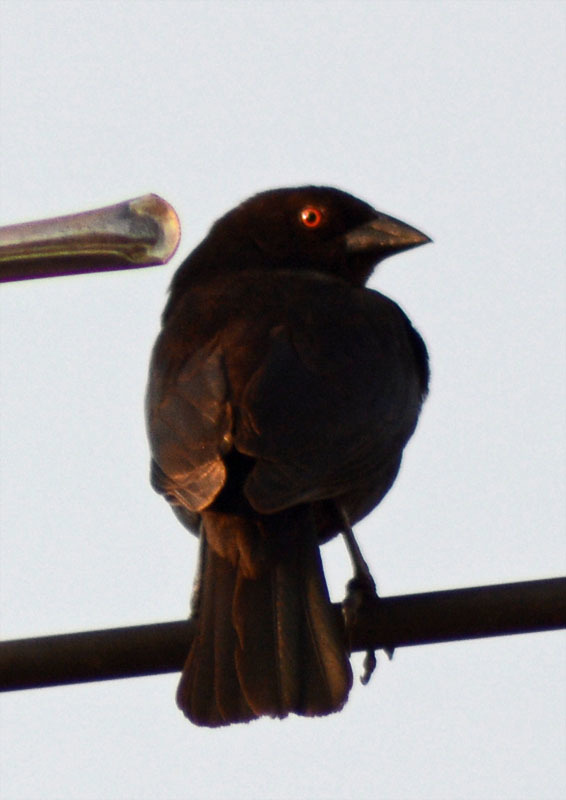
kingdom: Animalia
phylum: Chordata
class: Aves
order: Passeriformes
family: Icteridae
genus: Molothrus
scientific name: Molothrus aeneus
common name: Bronzed cowbird
